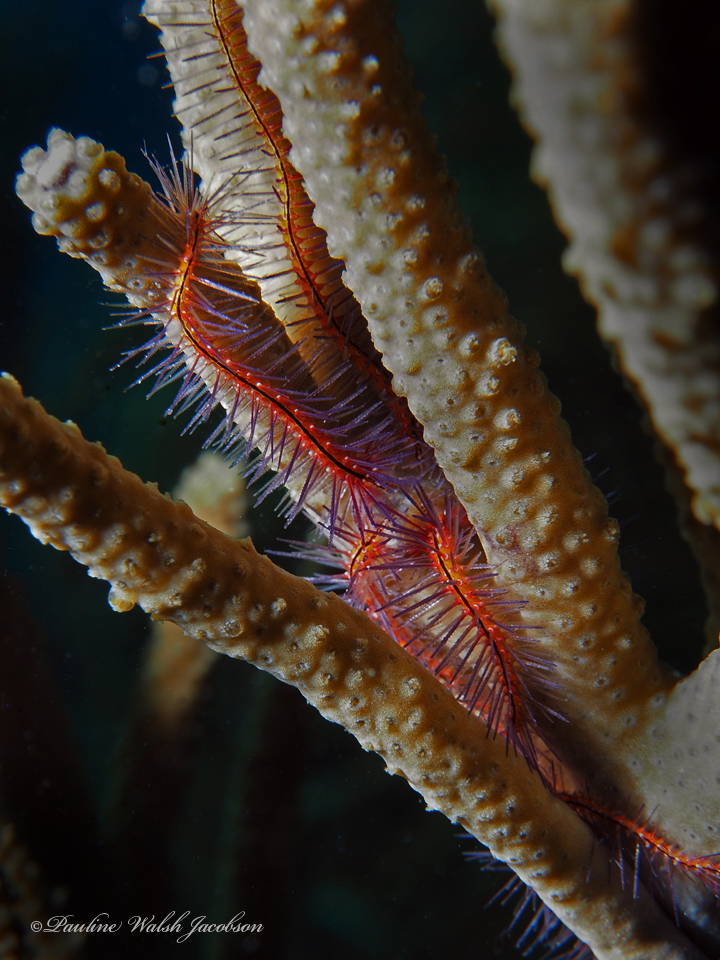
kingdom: Animalia
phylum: Echinodermata
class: Ophiuroidea
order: Amphilepidida
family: Ophiotrichidae
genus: Ophiothrix
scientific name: Ophiothrix suensonii
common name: Sponge brittle star
